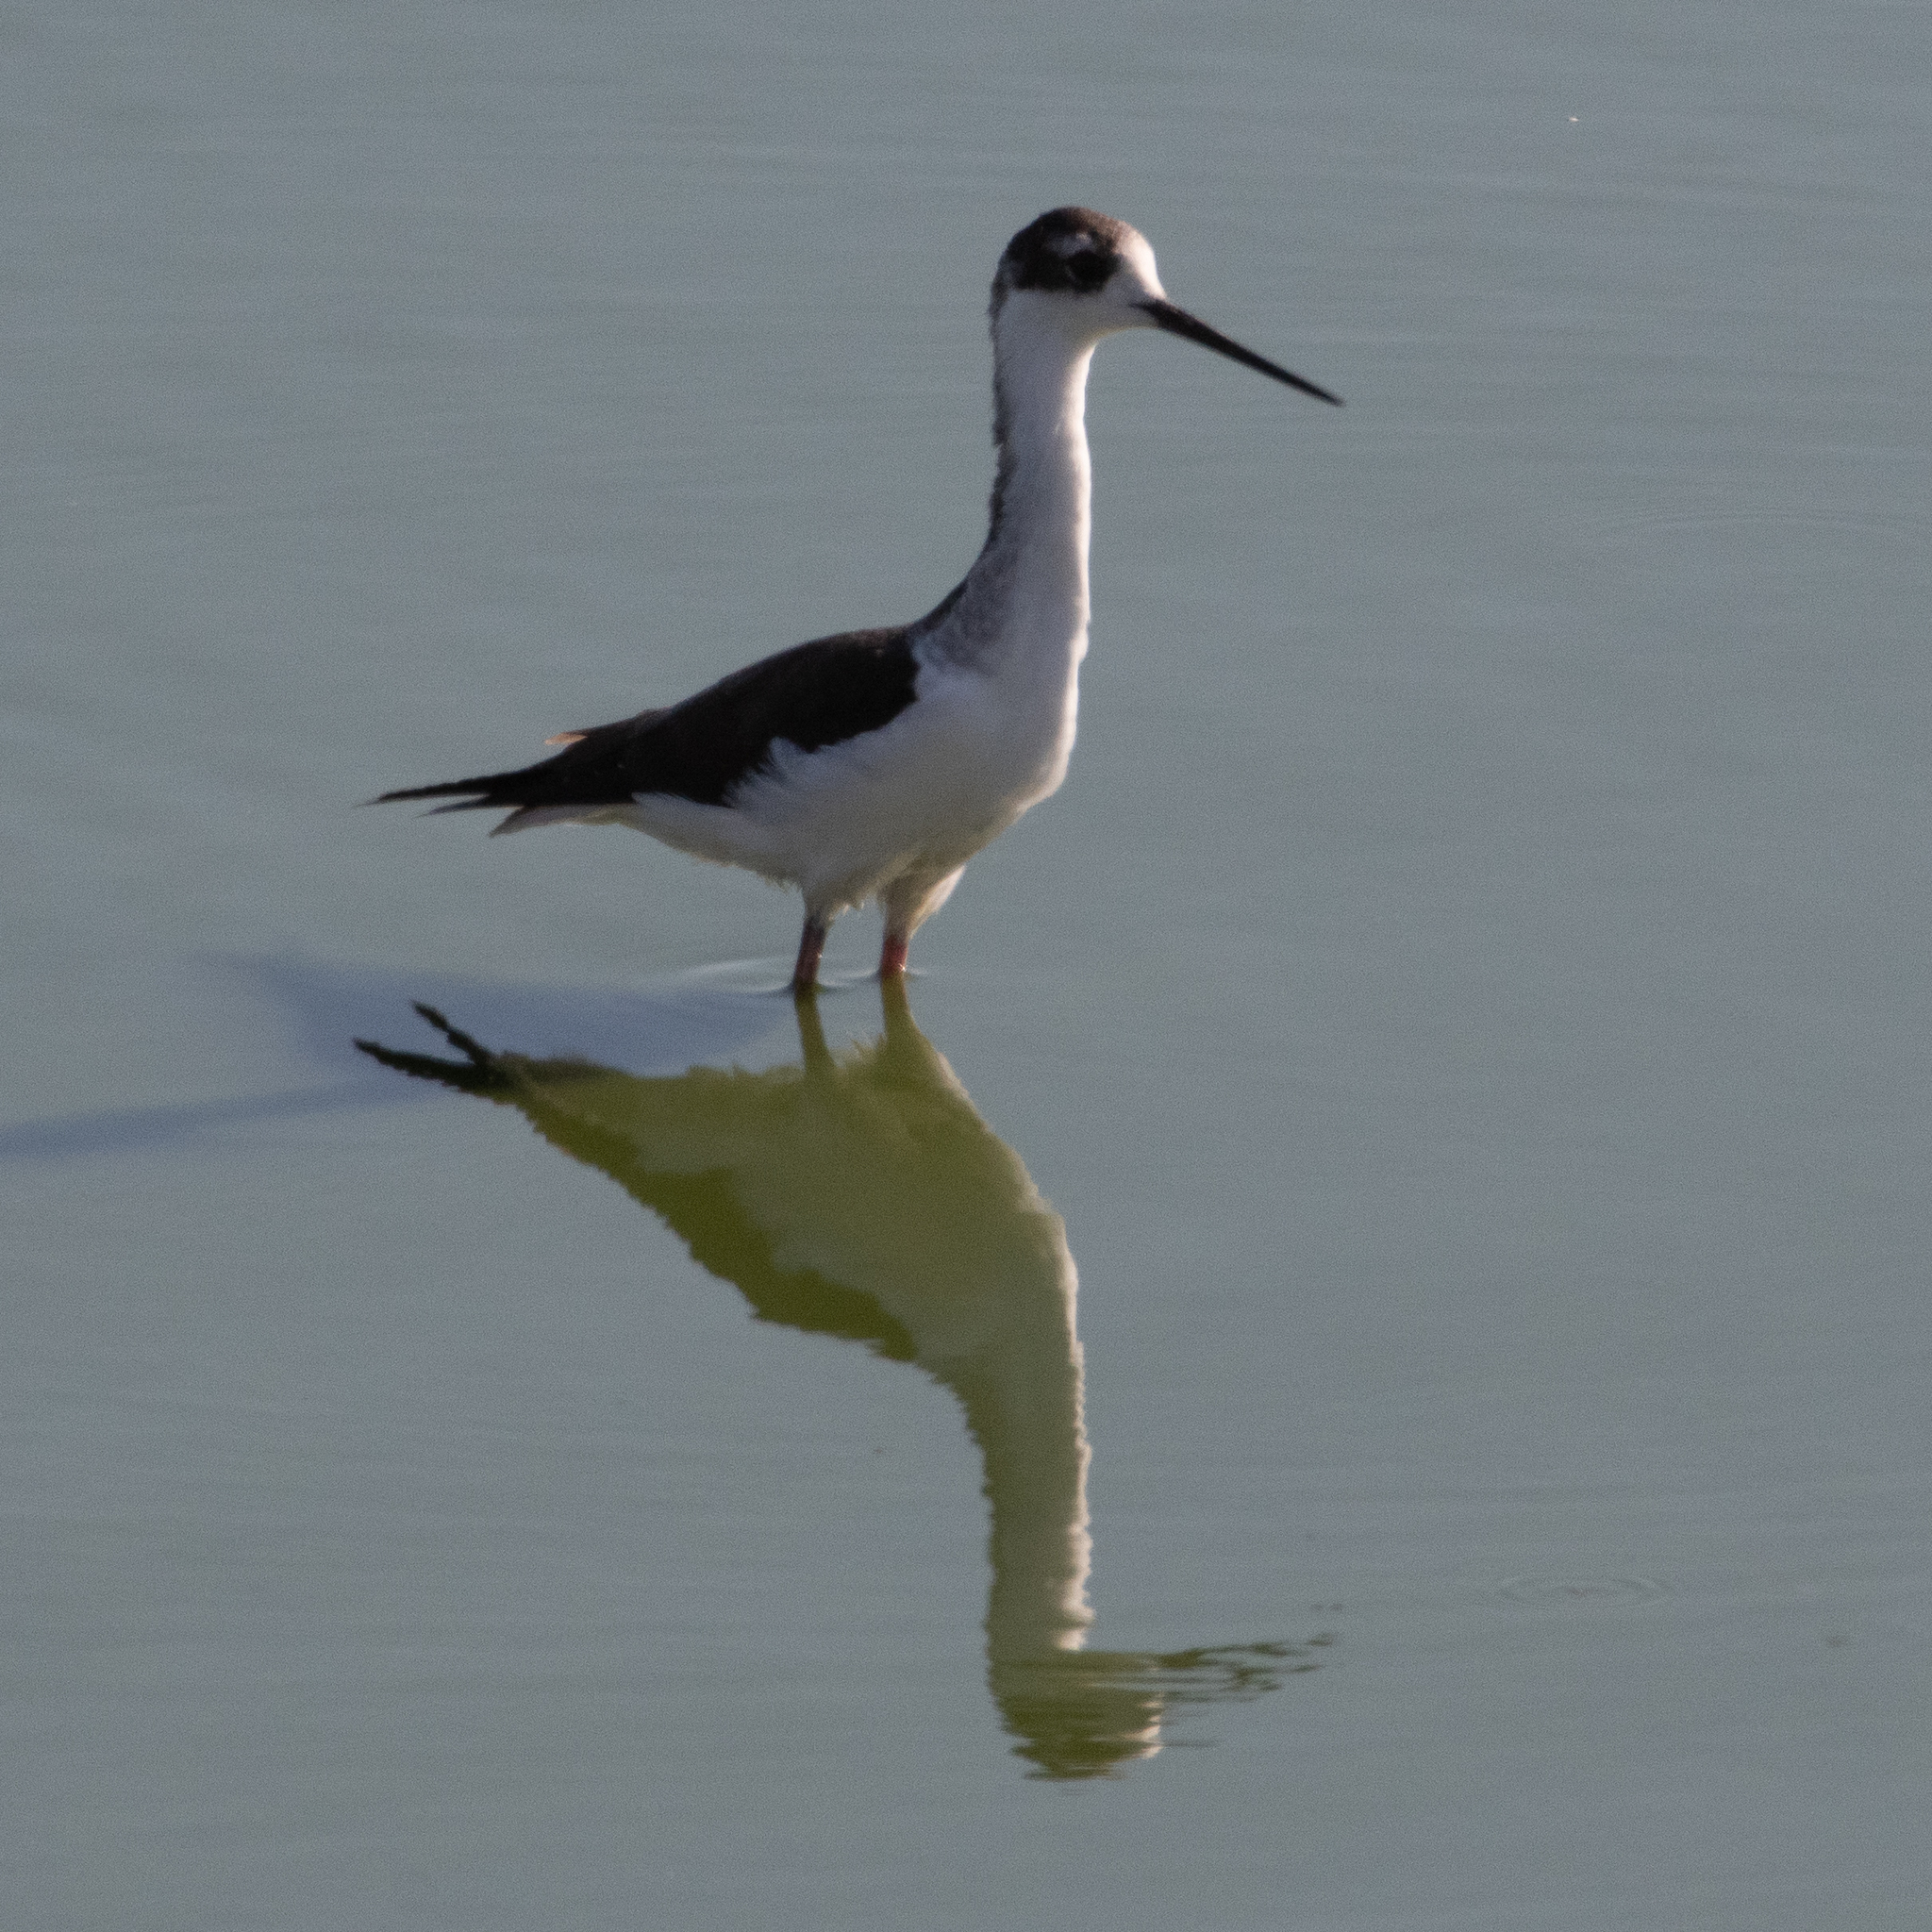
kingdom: Animalia
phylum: Chordata
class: Aves
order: Charadriiformes
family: Recurvirostridae
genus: Himantopus
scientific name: Himantopus mexicanus
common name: Black-necked stilt
